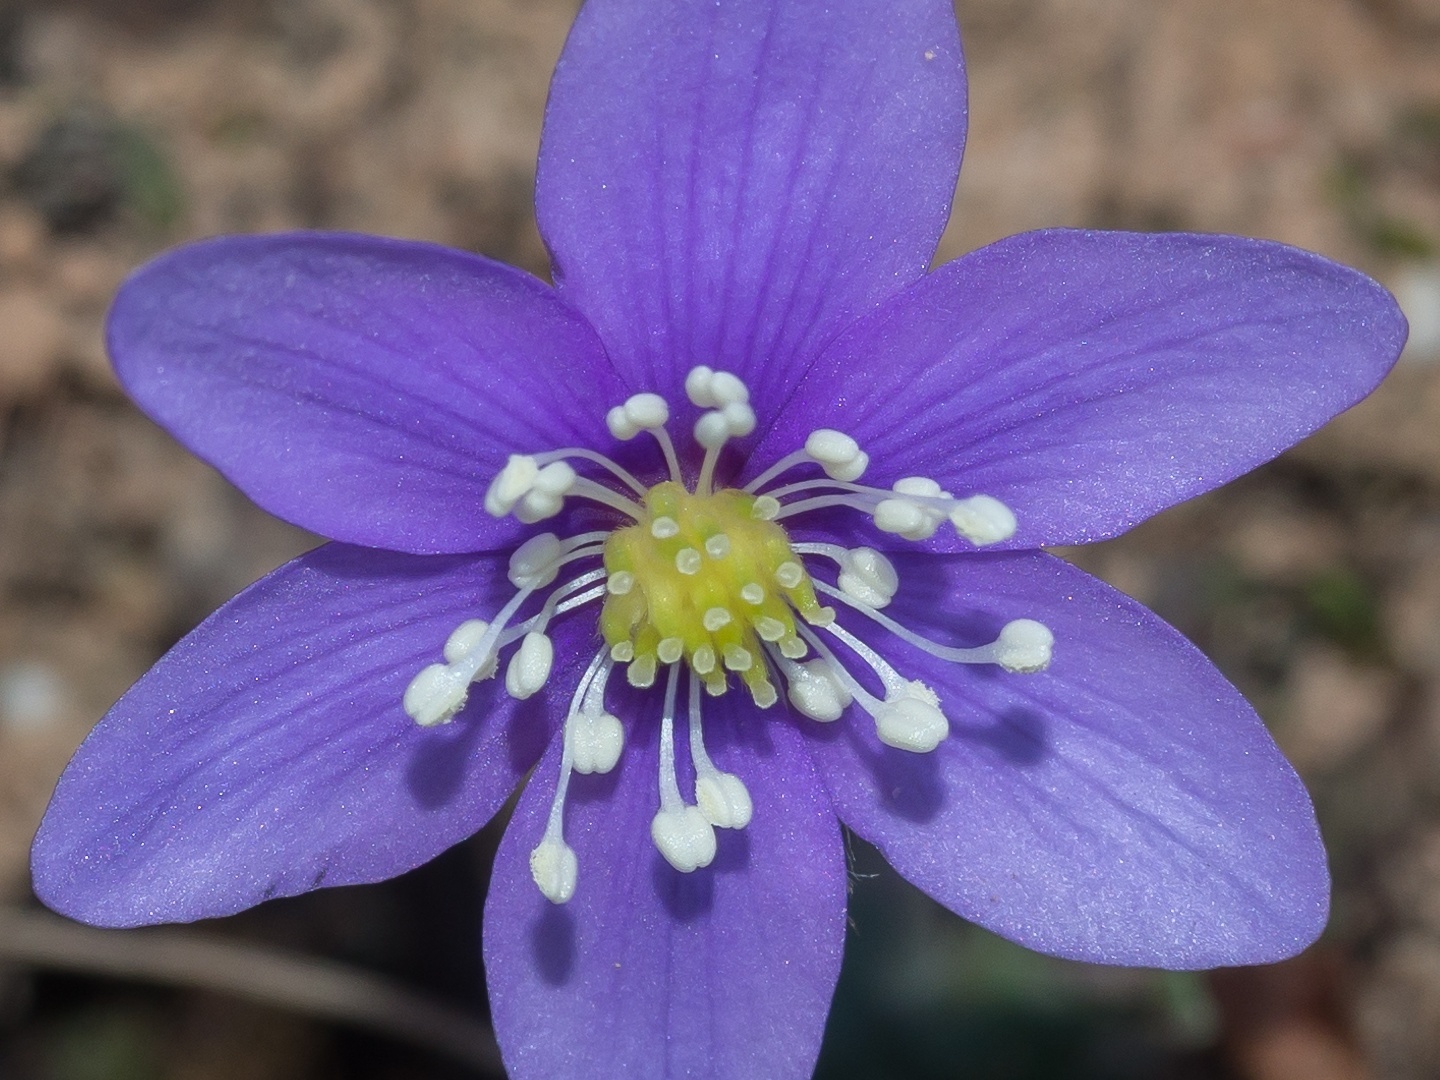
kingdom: Plantae
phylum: Tracheophyta
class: Magnoliopsida
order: Ranunculales
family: Ranunculaceae
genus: Hepatica
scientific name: Hepatica nobilis
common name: Liverleaf
